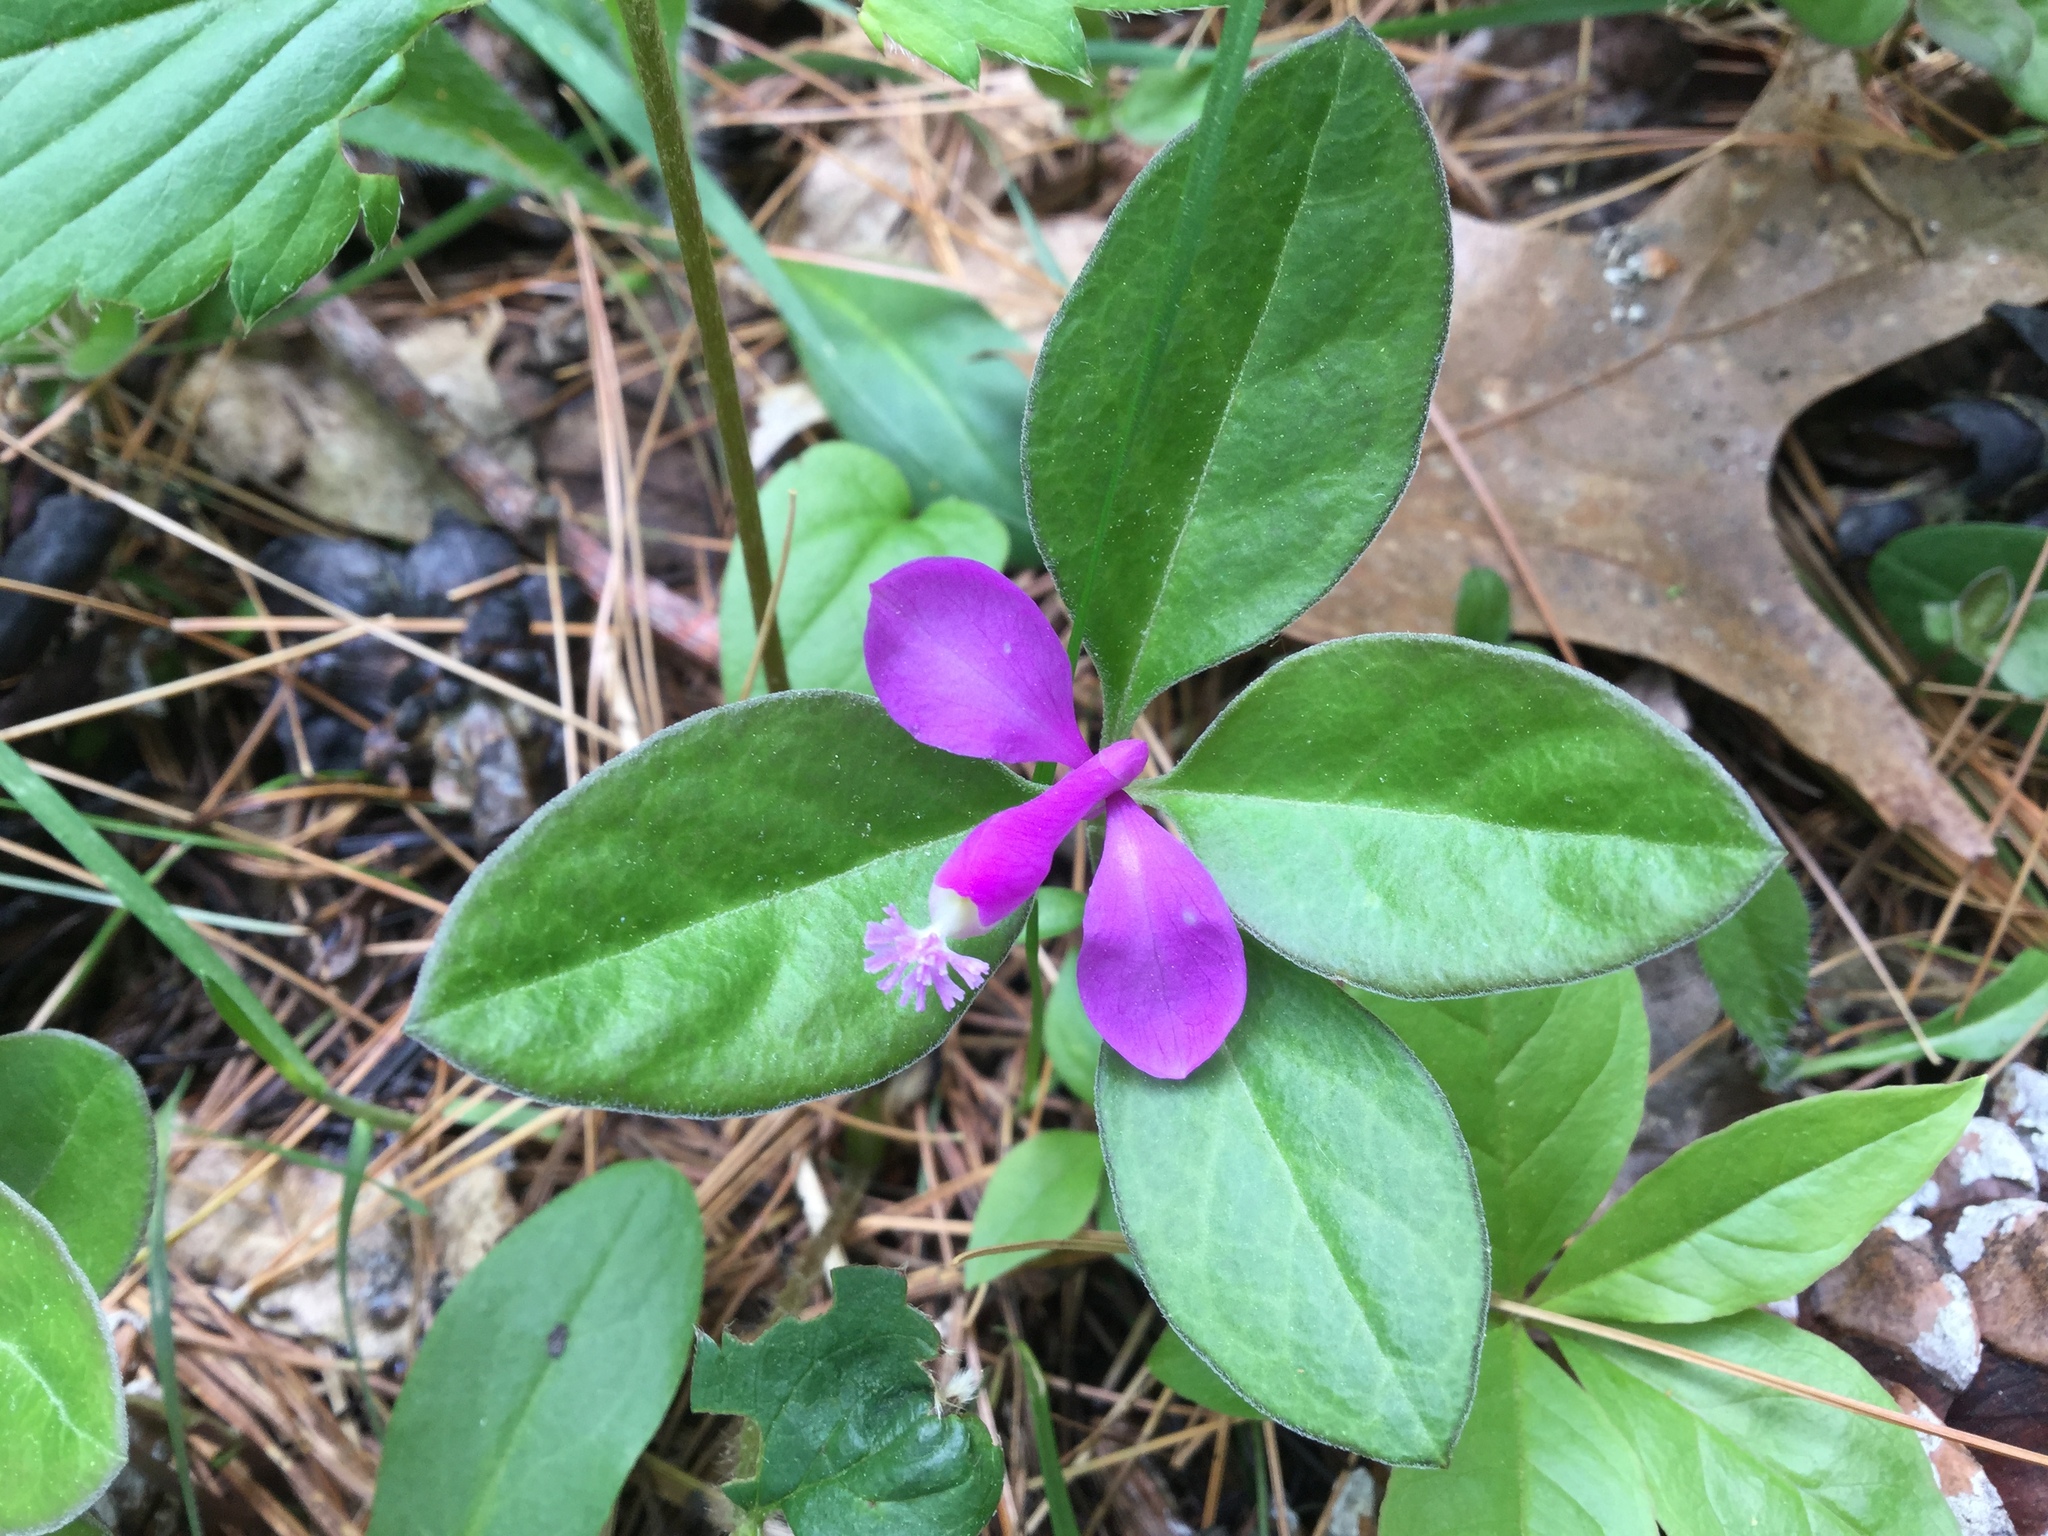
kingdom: Plantae
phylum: Tracheophyta
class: Magnoliopsida
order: Fabales
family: Polygalaceae
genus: Polygaloides
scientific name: Polygaloides paucifolia
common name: Bird-on-the-wing
